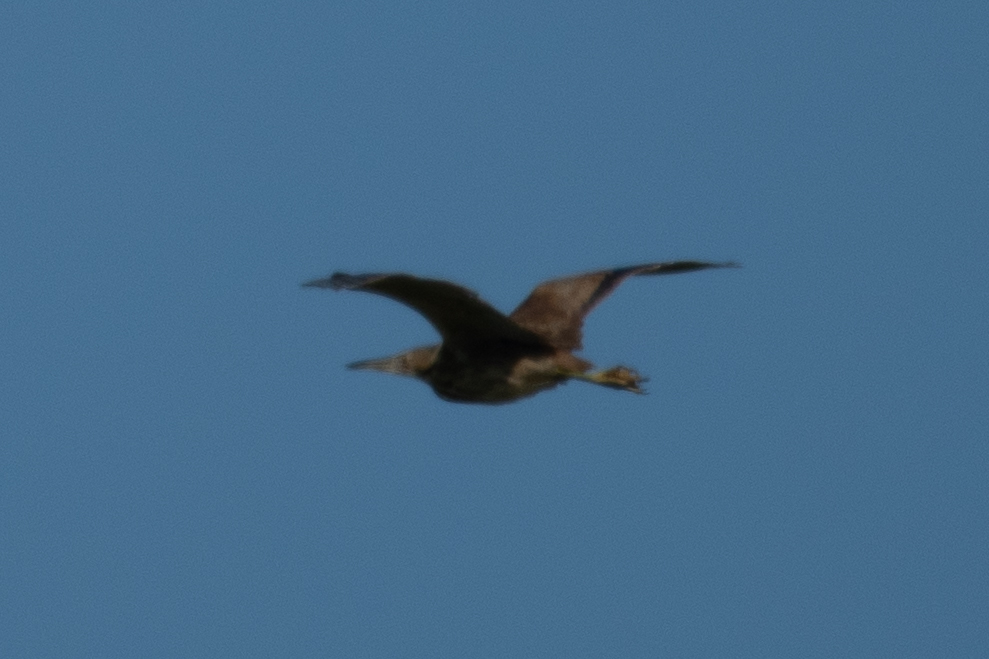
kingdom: Animalia
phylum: Chordata
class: Aves
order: Pelecaniformes
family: Ardeidae
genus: Botaurus
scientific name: Botaurus lentiginosus
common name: American bittern
